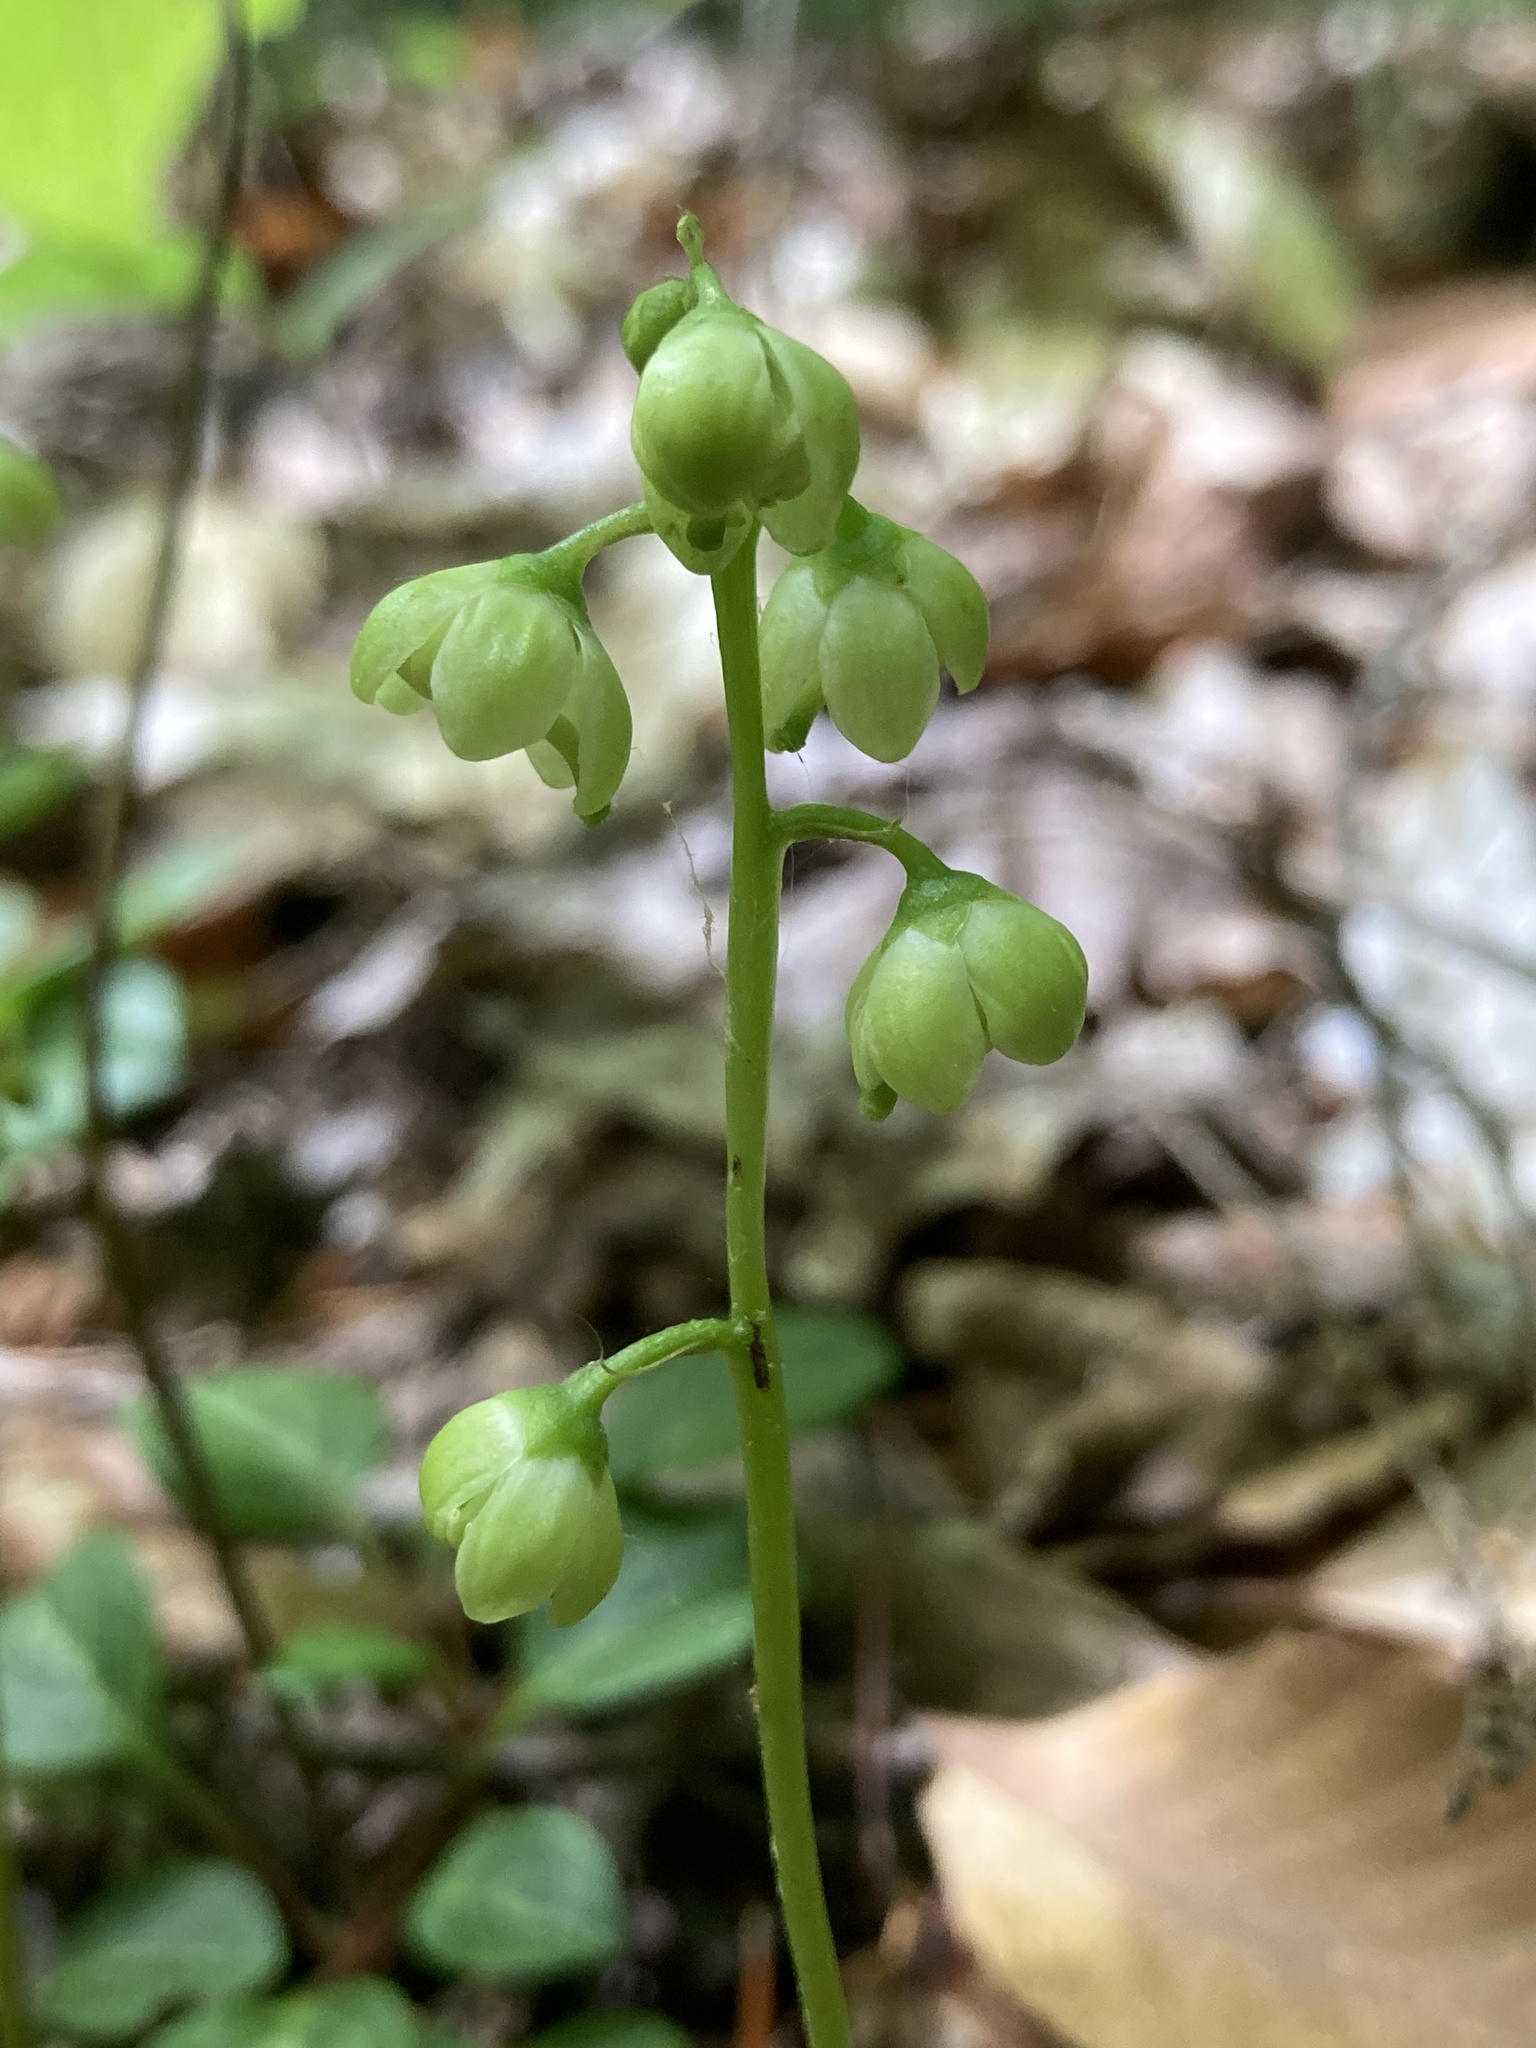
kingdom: Plantae
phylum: Tracheophyta
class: Magnoliopsida
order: Ericales
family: Ericaceae
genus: Pyrola
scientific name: Pyrola chlorantha
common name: Green wintergreen
